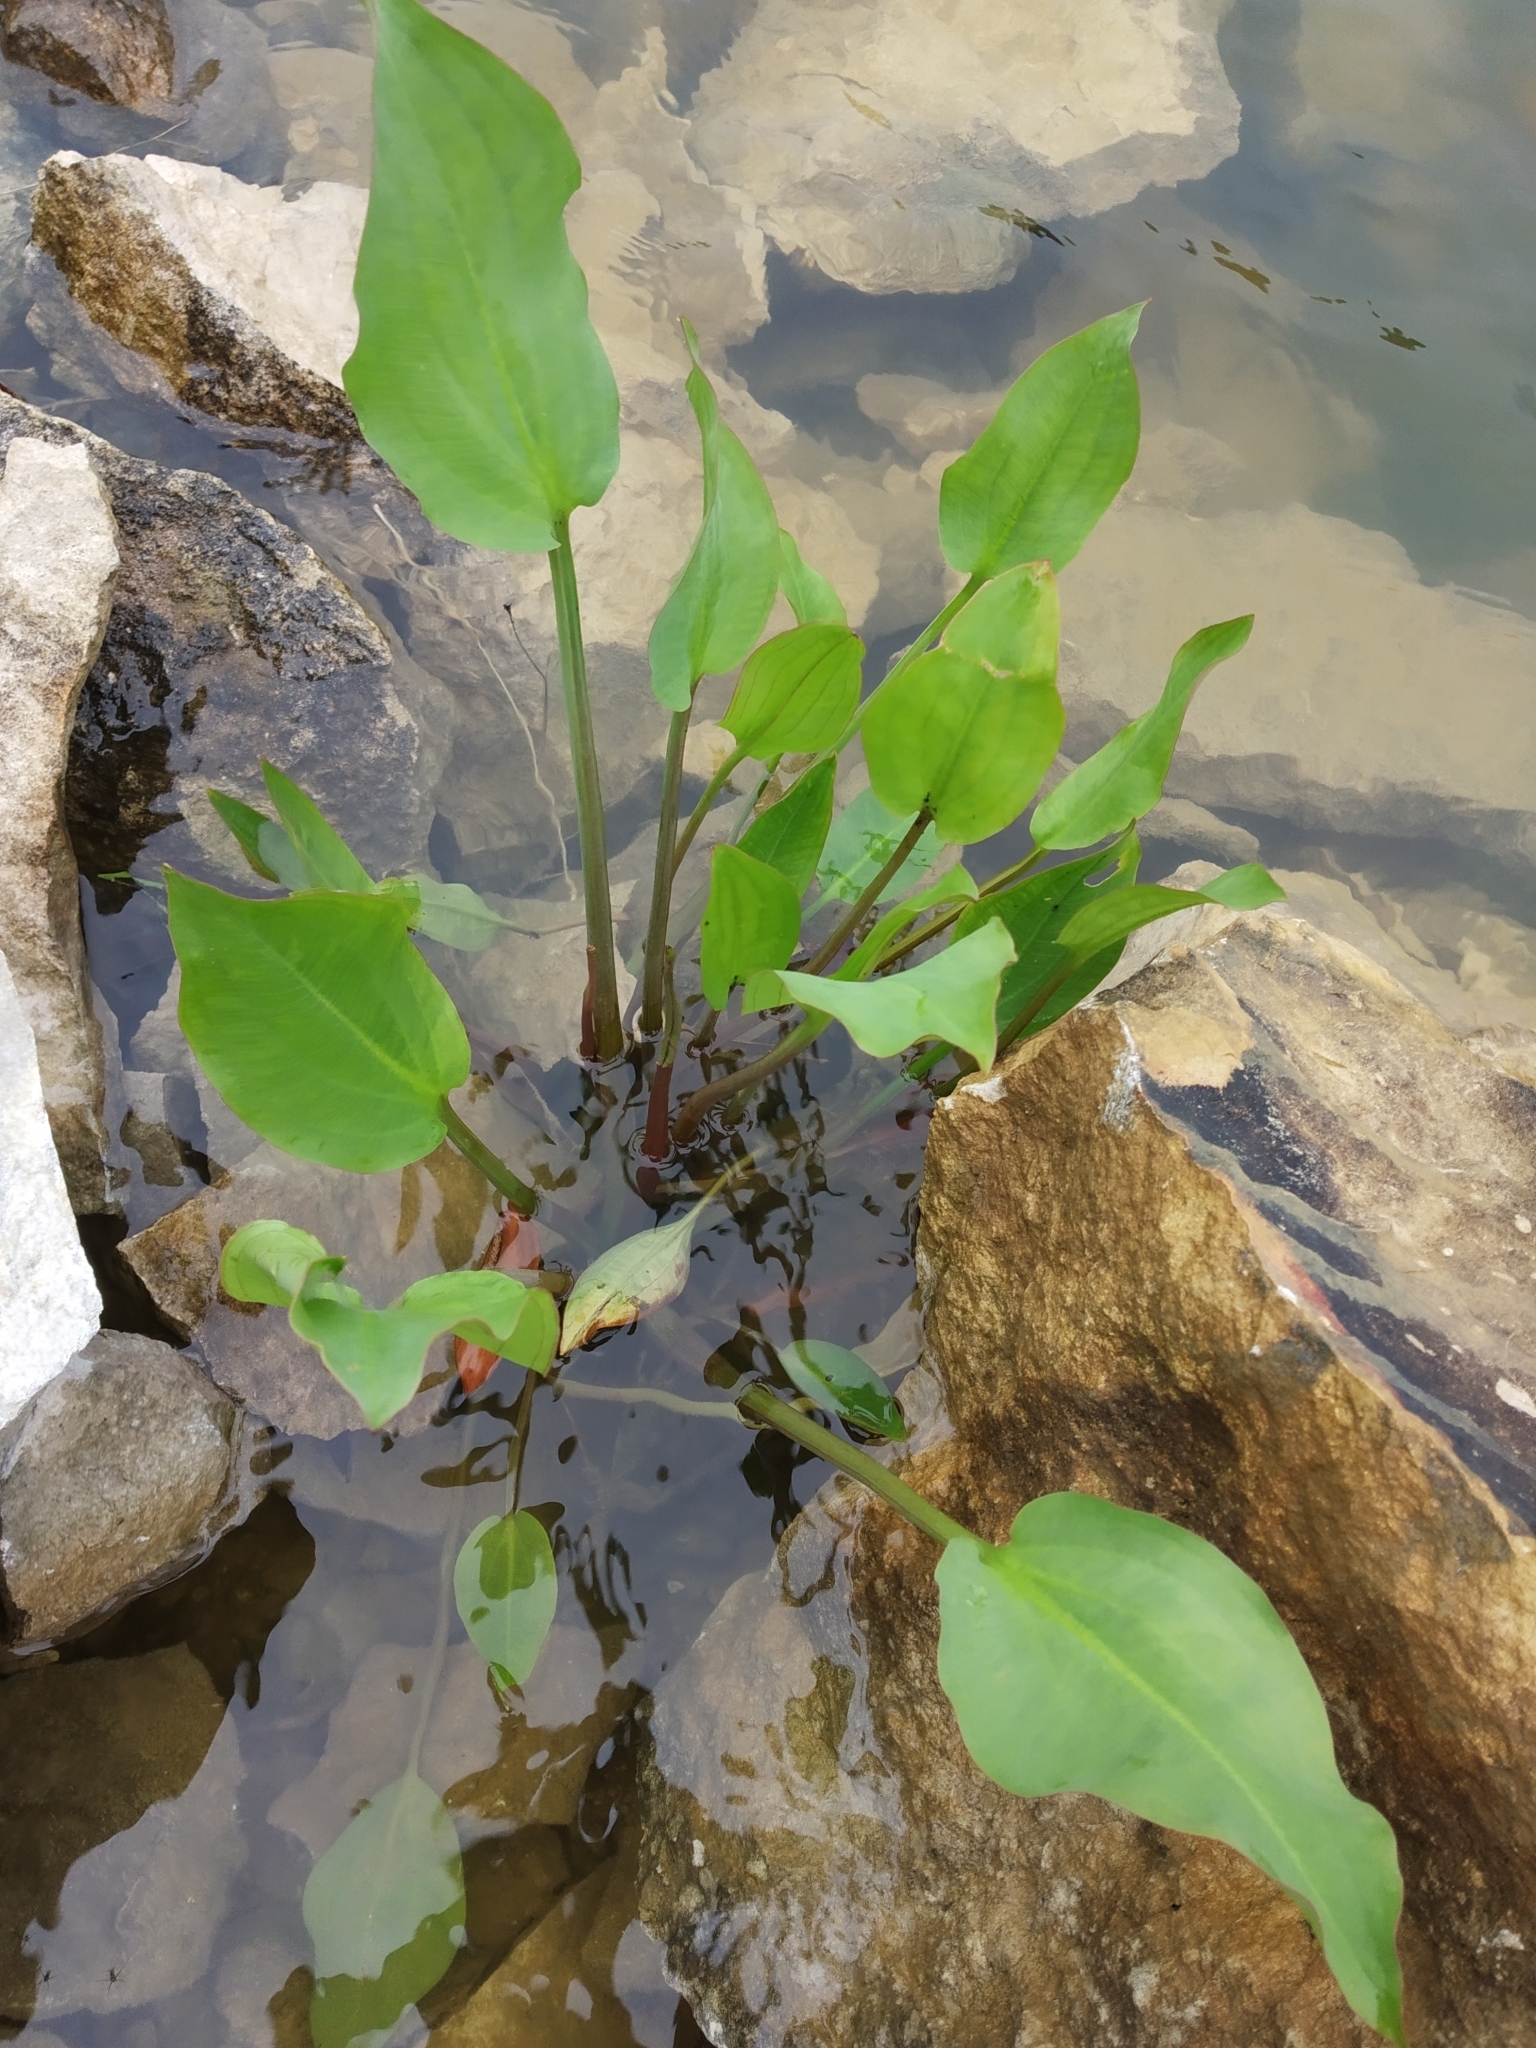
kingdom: Plantae
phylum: Tracheophyta
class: Liliopsida
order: Alismatales
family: Alismataceae
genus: Alisma
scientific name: Alisma plantago-aquatica
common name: Water-plantain
